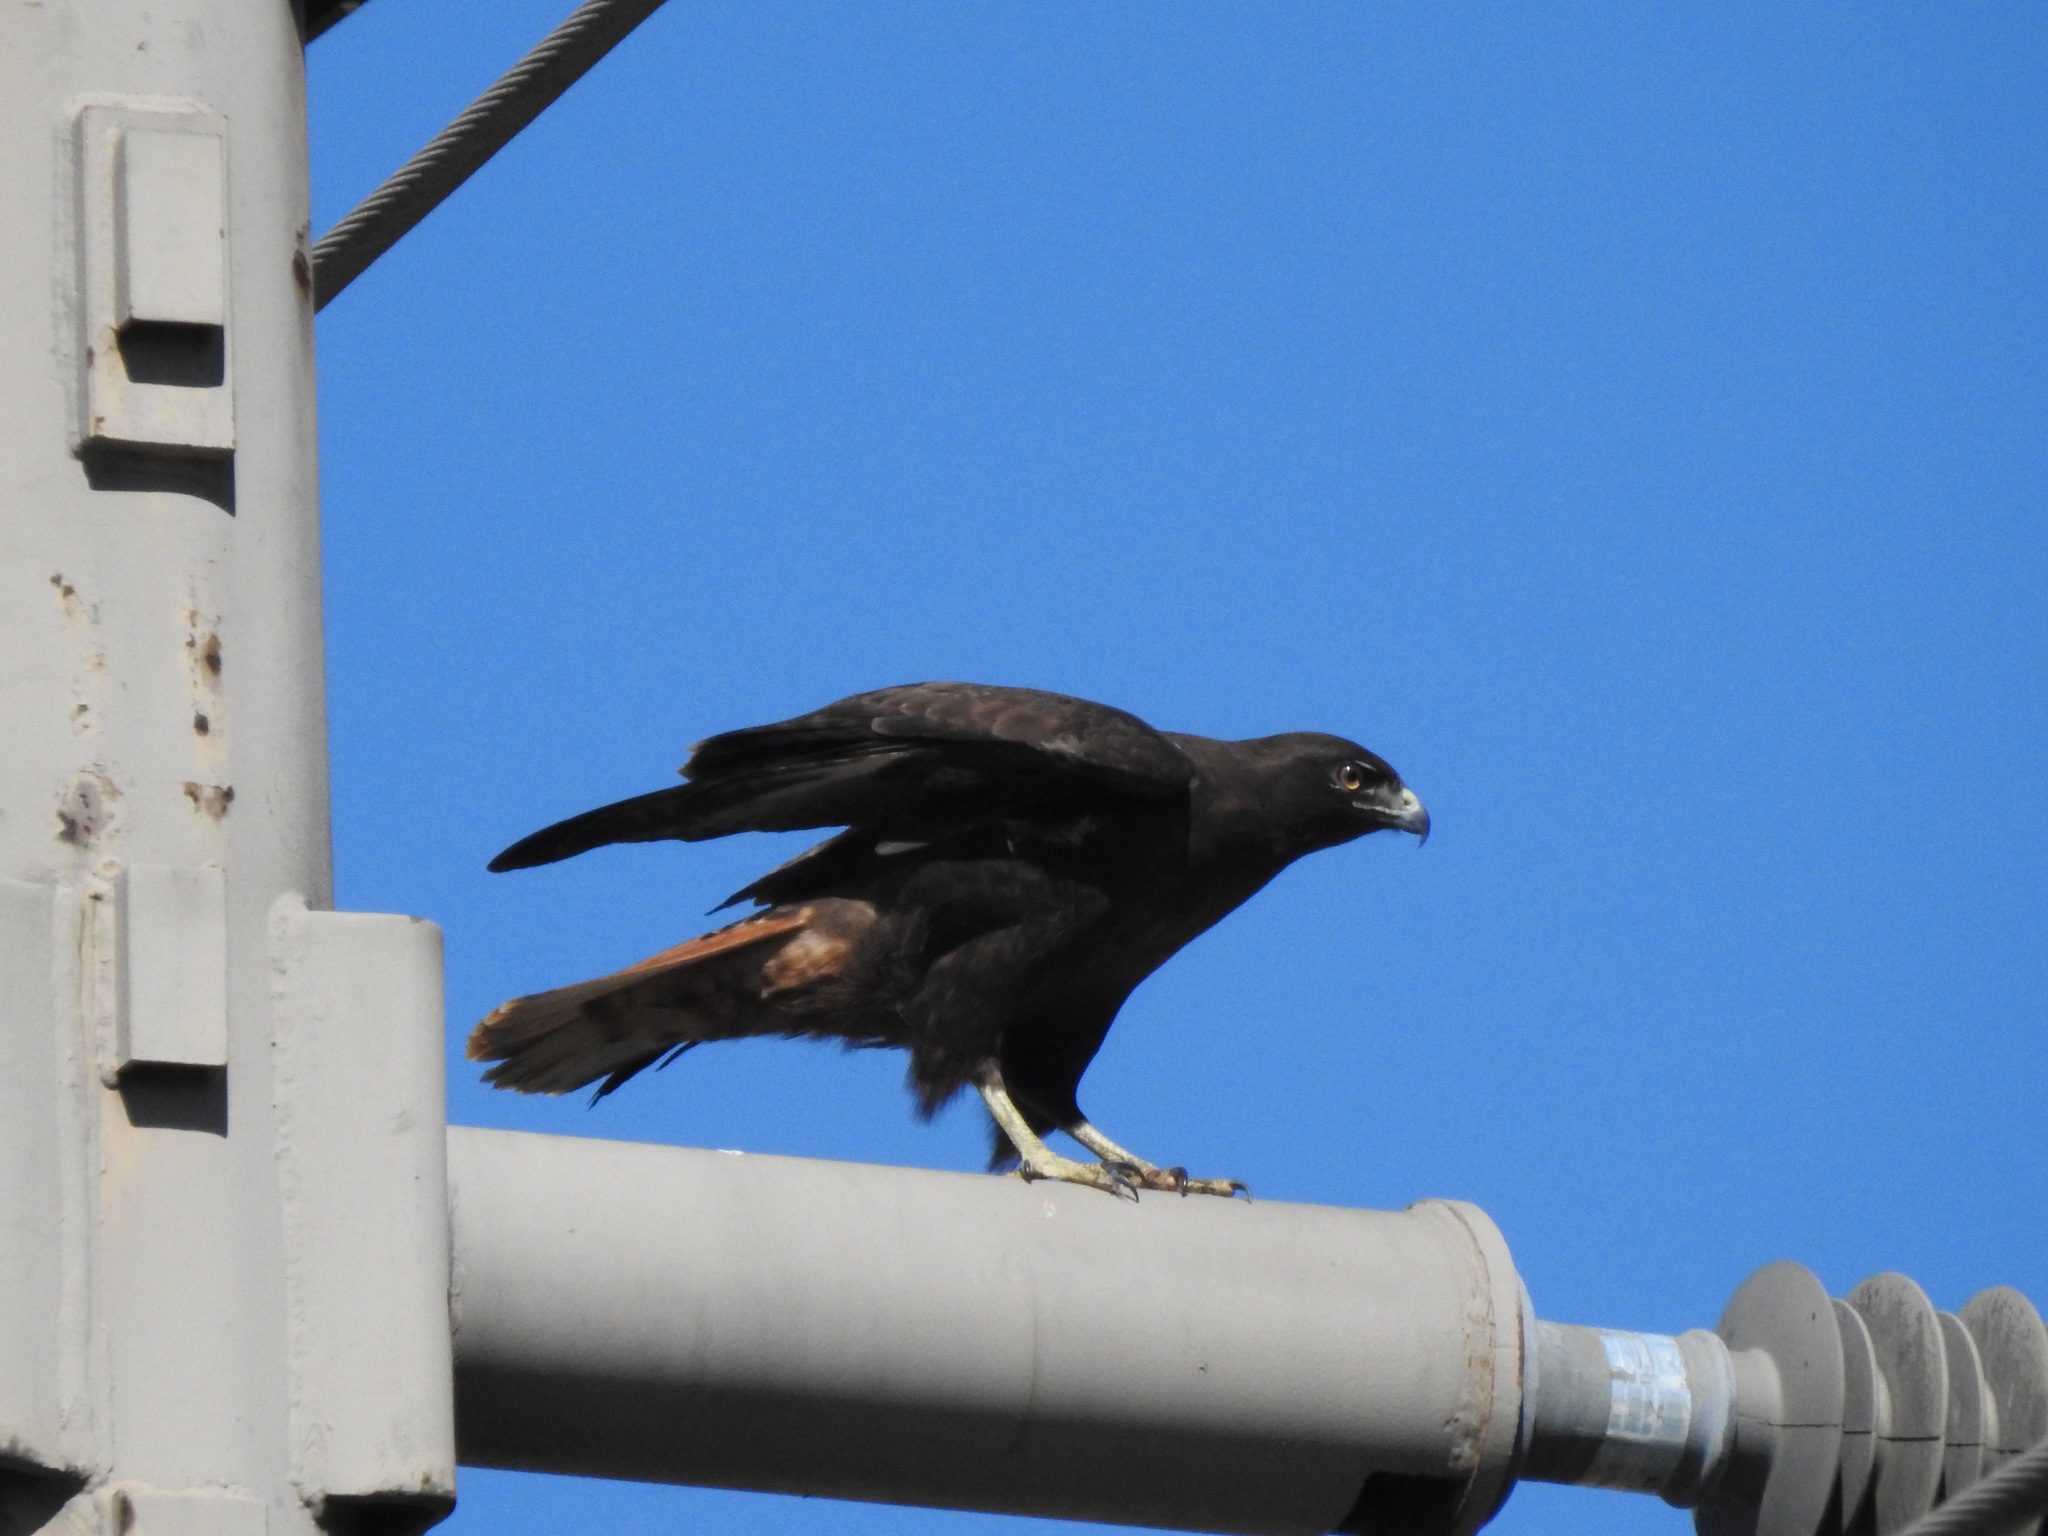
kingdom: Animalia
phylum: Chordata
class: Aves
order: Accipitriformes
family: Accipitridae
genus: Buteo
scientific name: Buteo jamaicensis
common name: Red-tailed hawk
